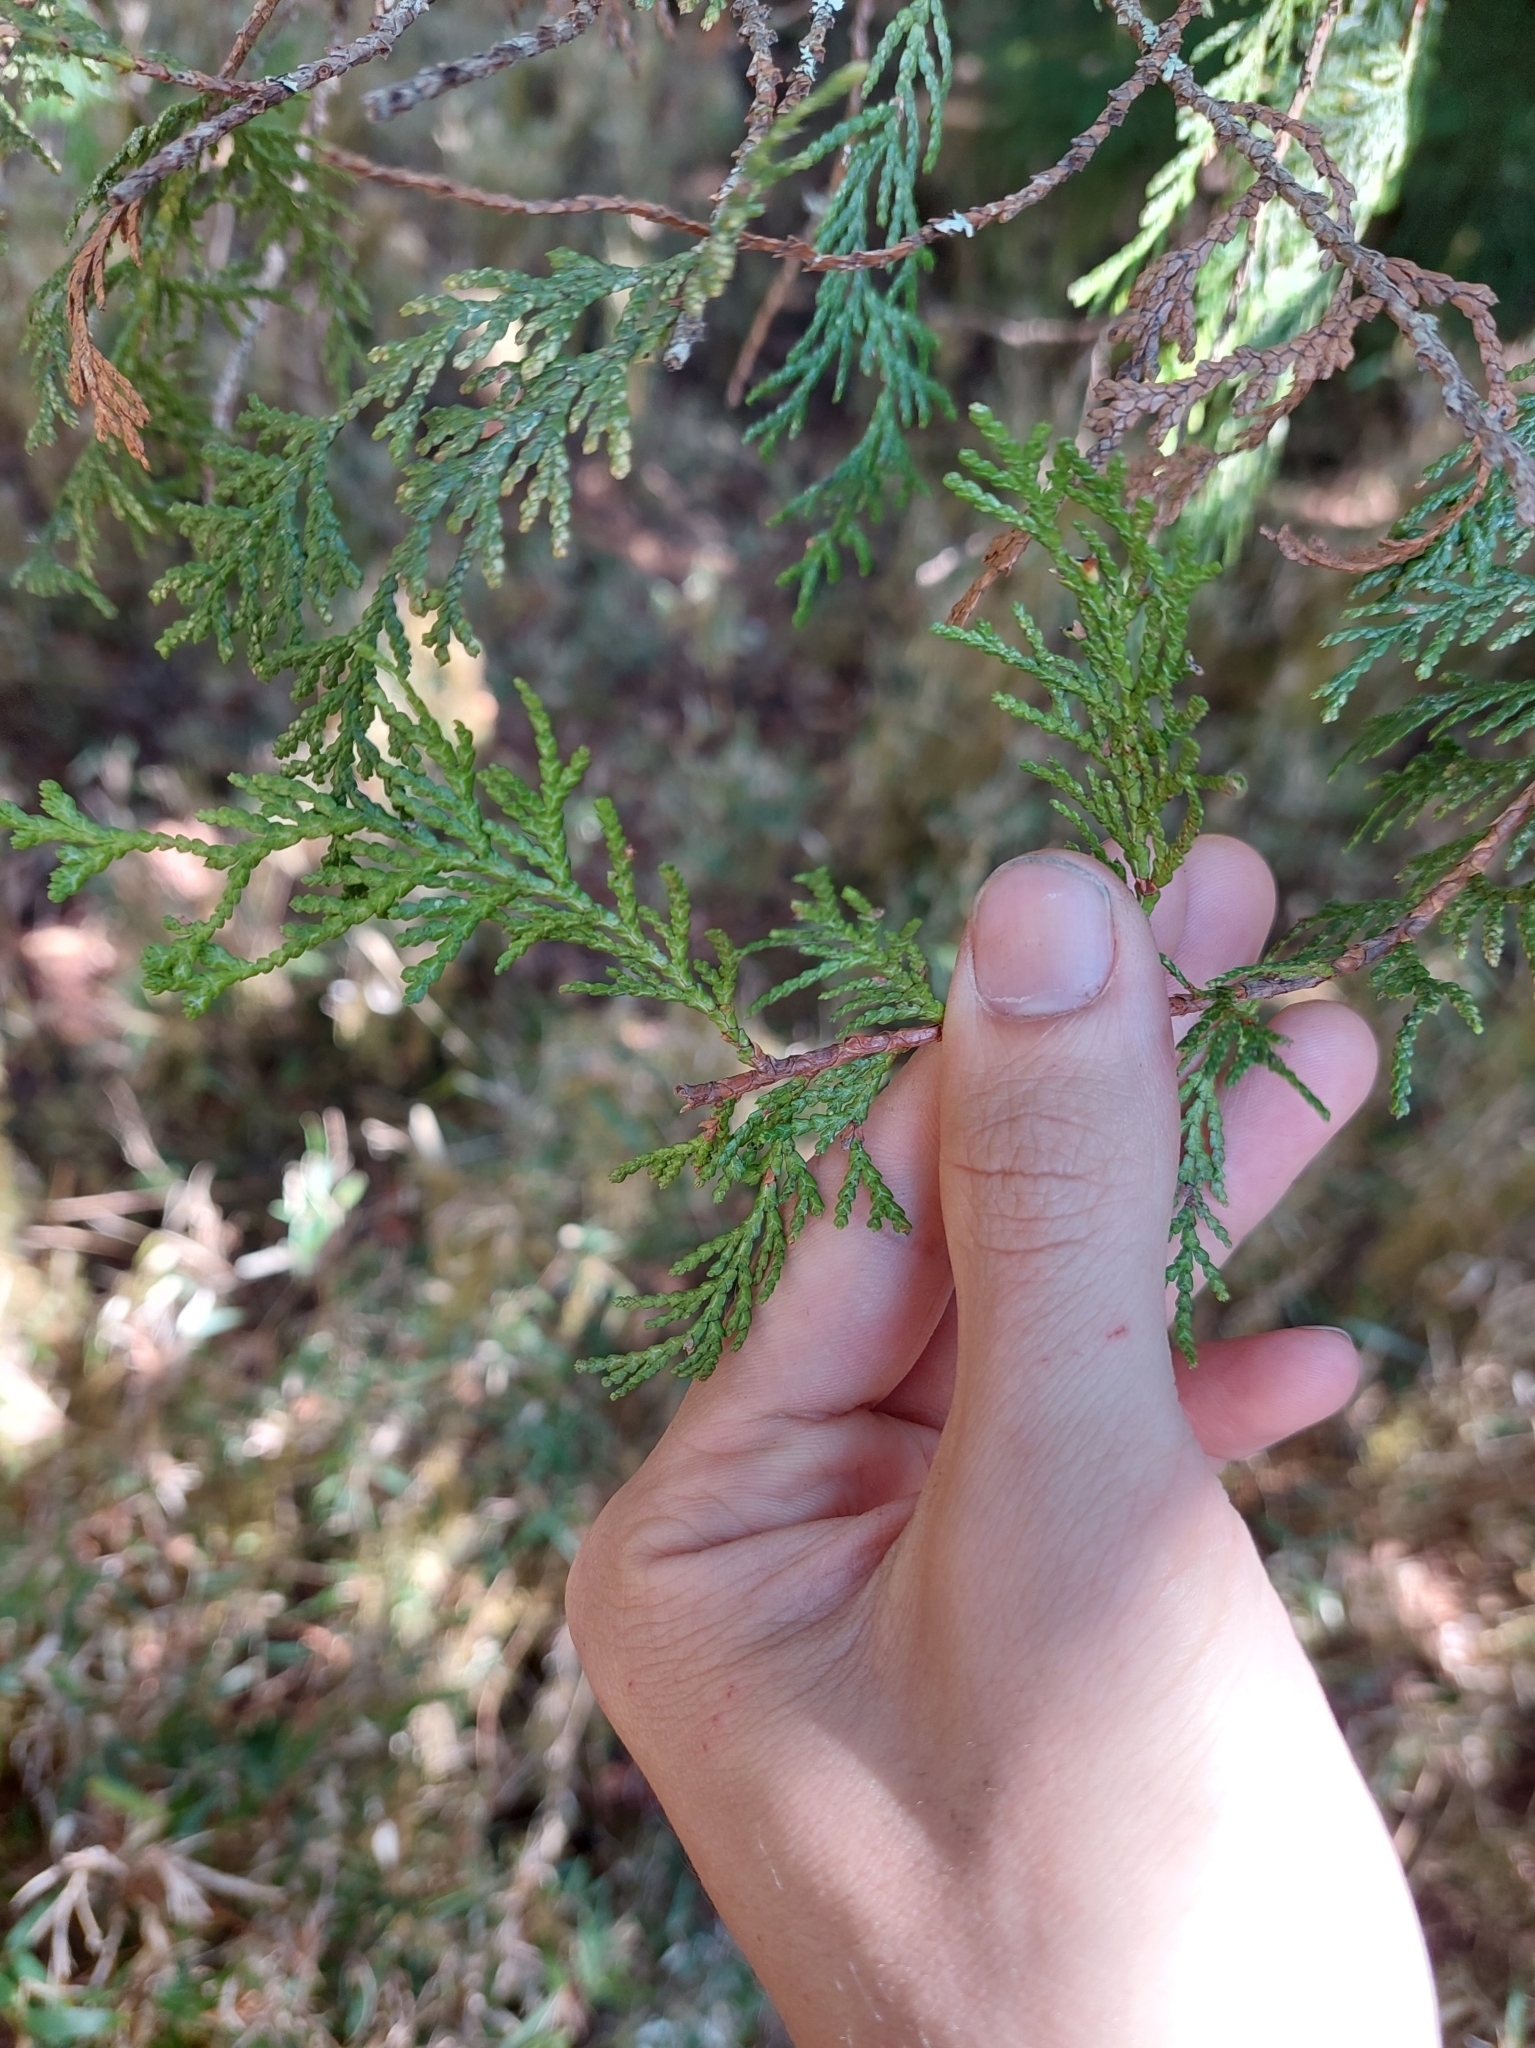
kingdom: Plantae
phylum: Tracheophyta
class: Pinopsida
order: Pinales
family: Cupressaceae
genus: Chamaecyparis
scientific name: Chamaecyparis formosensis
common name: Formosan cypress
